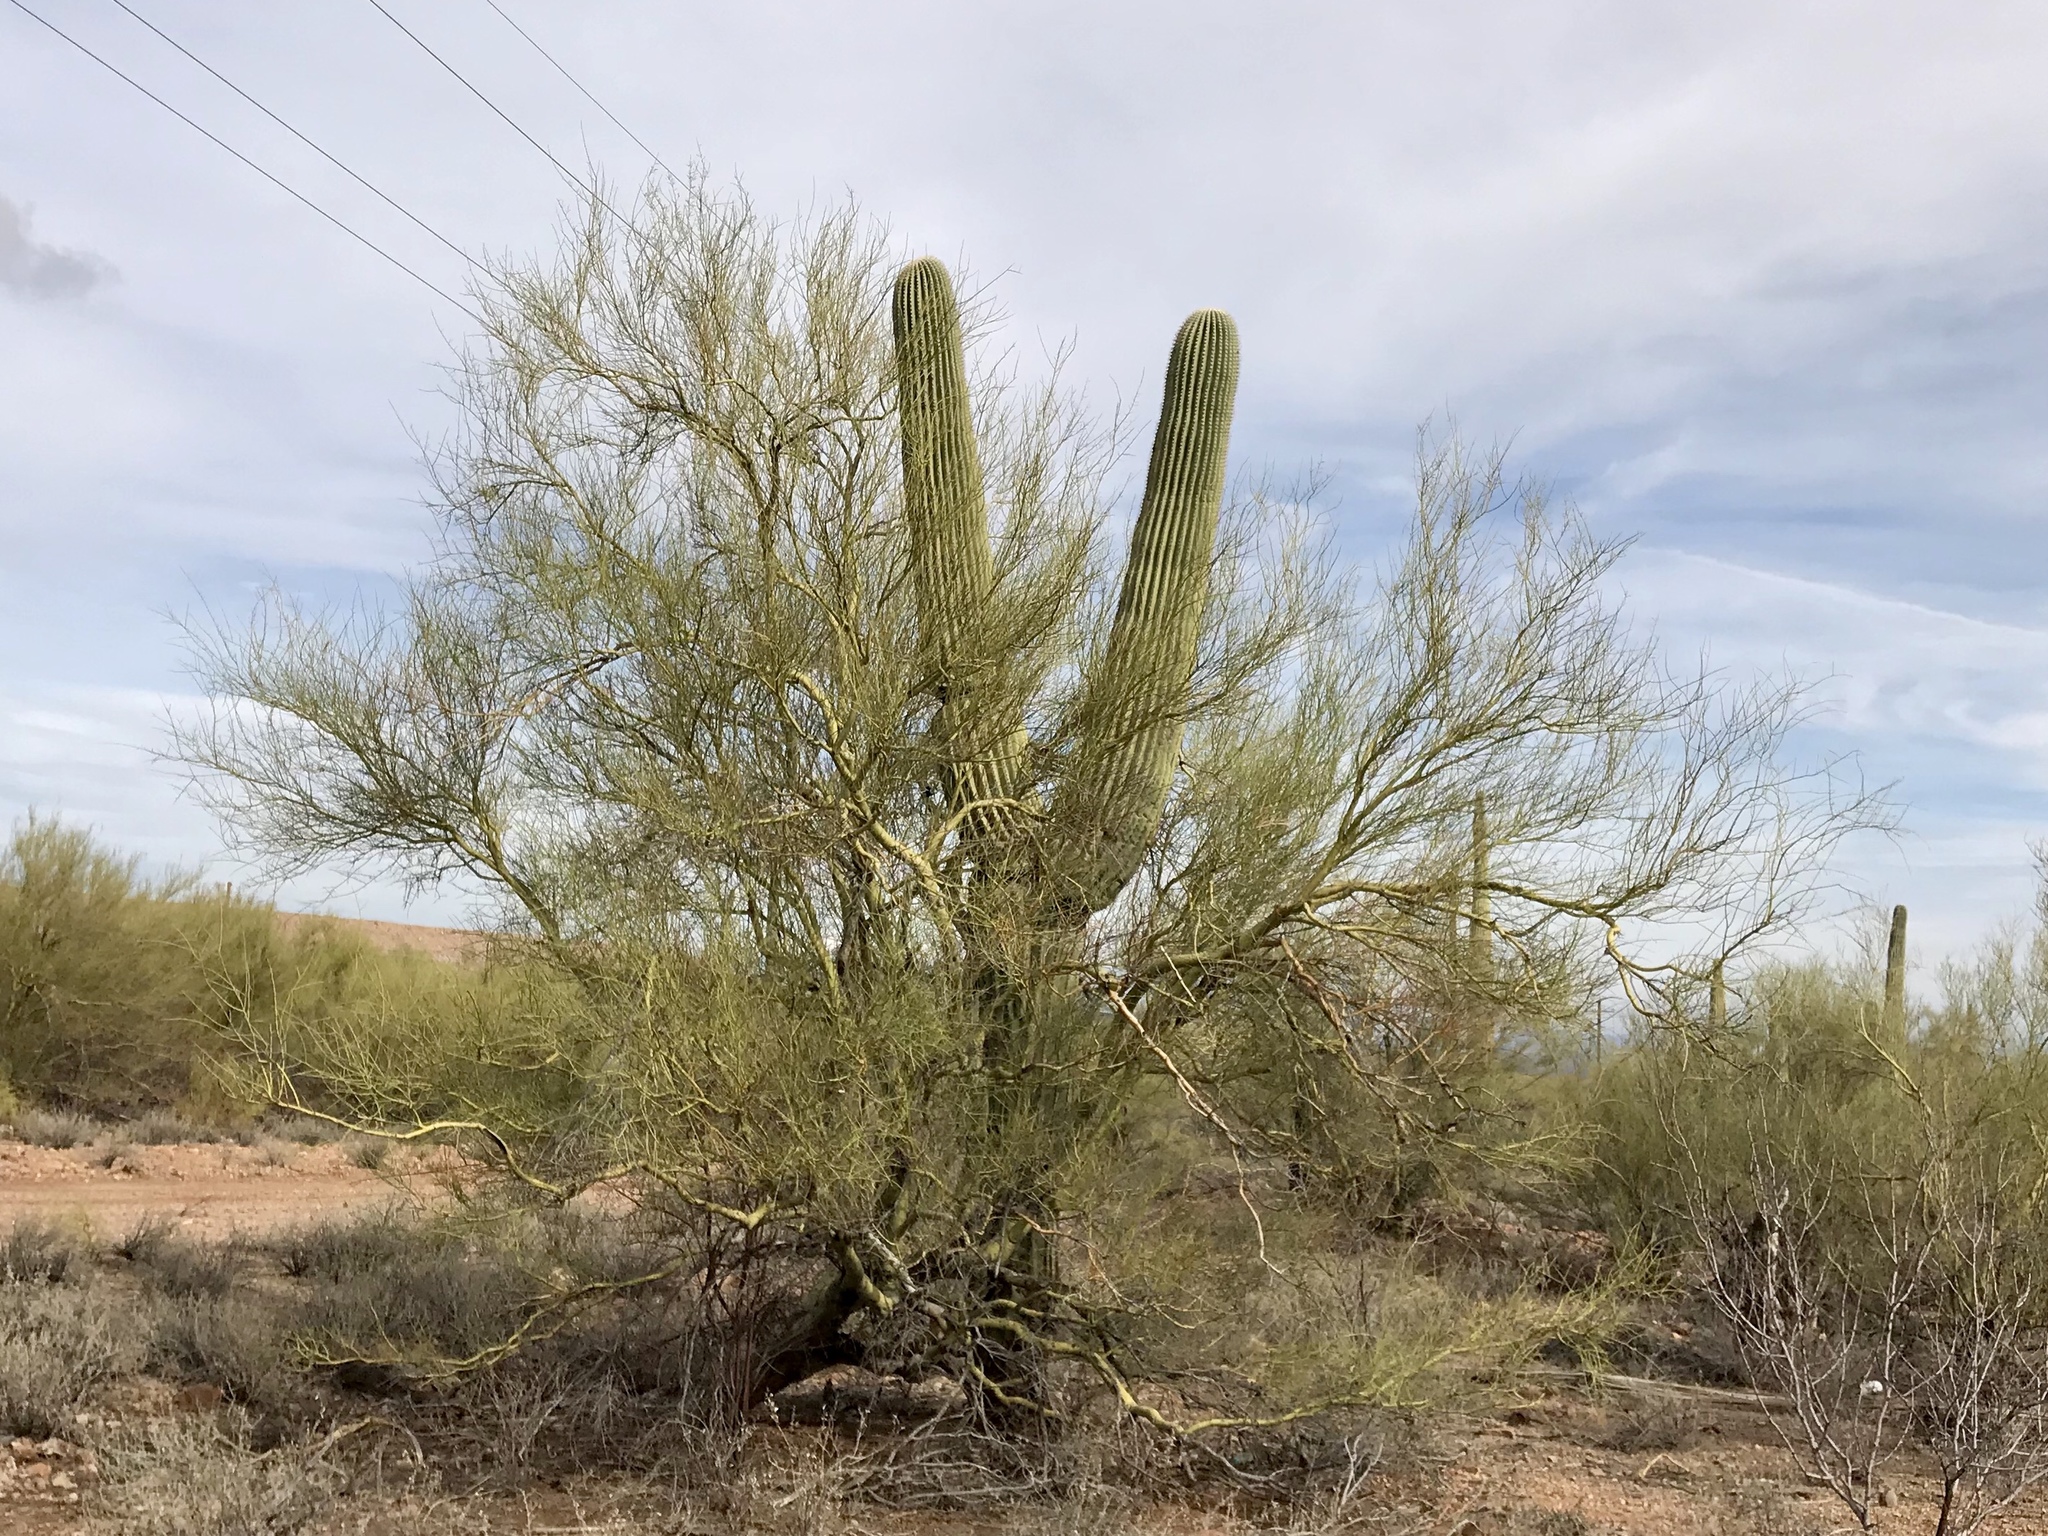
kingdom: Plantae
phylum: Tracheophyta
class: Magnoliopsida
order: Fabales
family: Fabaceae
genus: Parkinsonia
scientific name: Parkinsonia microphylla
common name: Yellow paloverde
